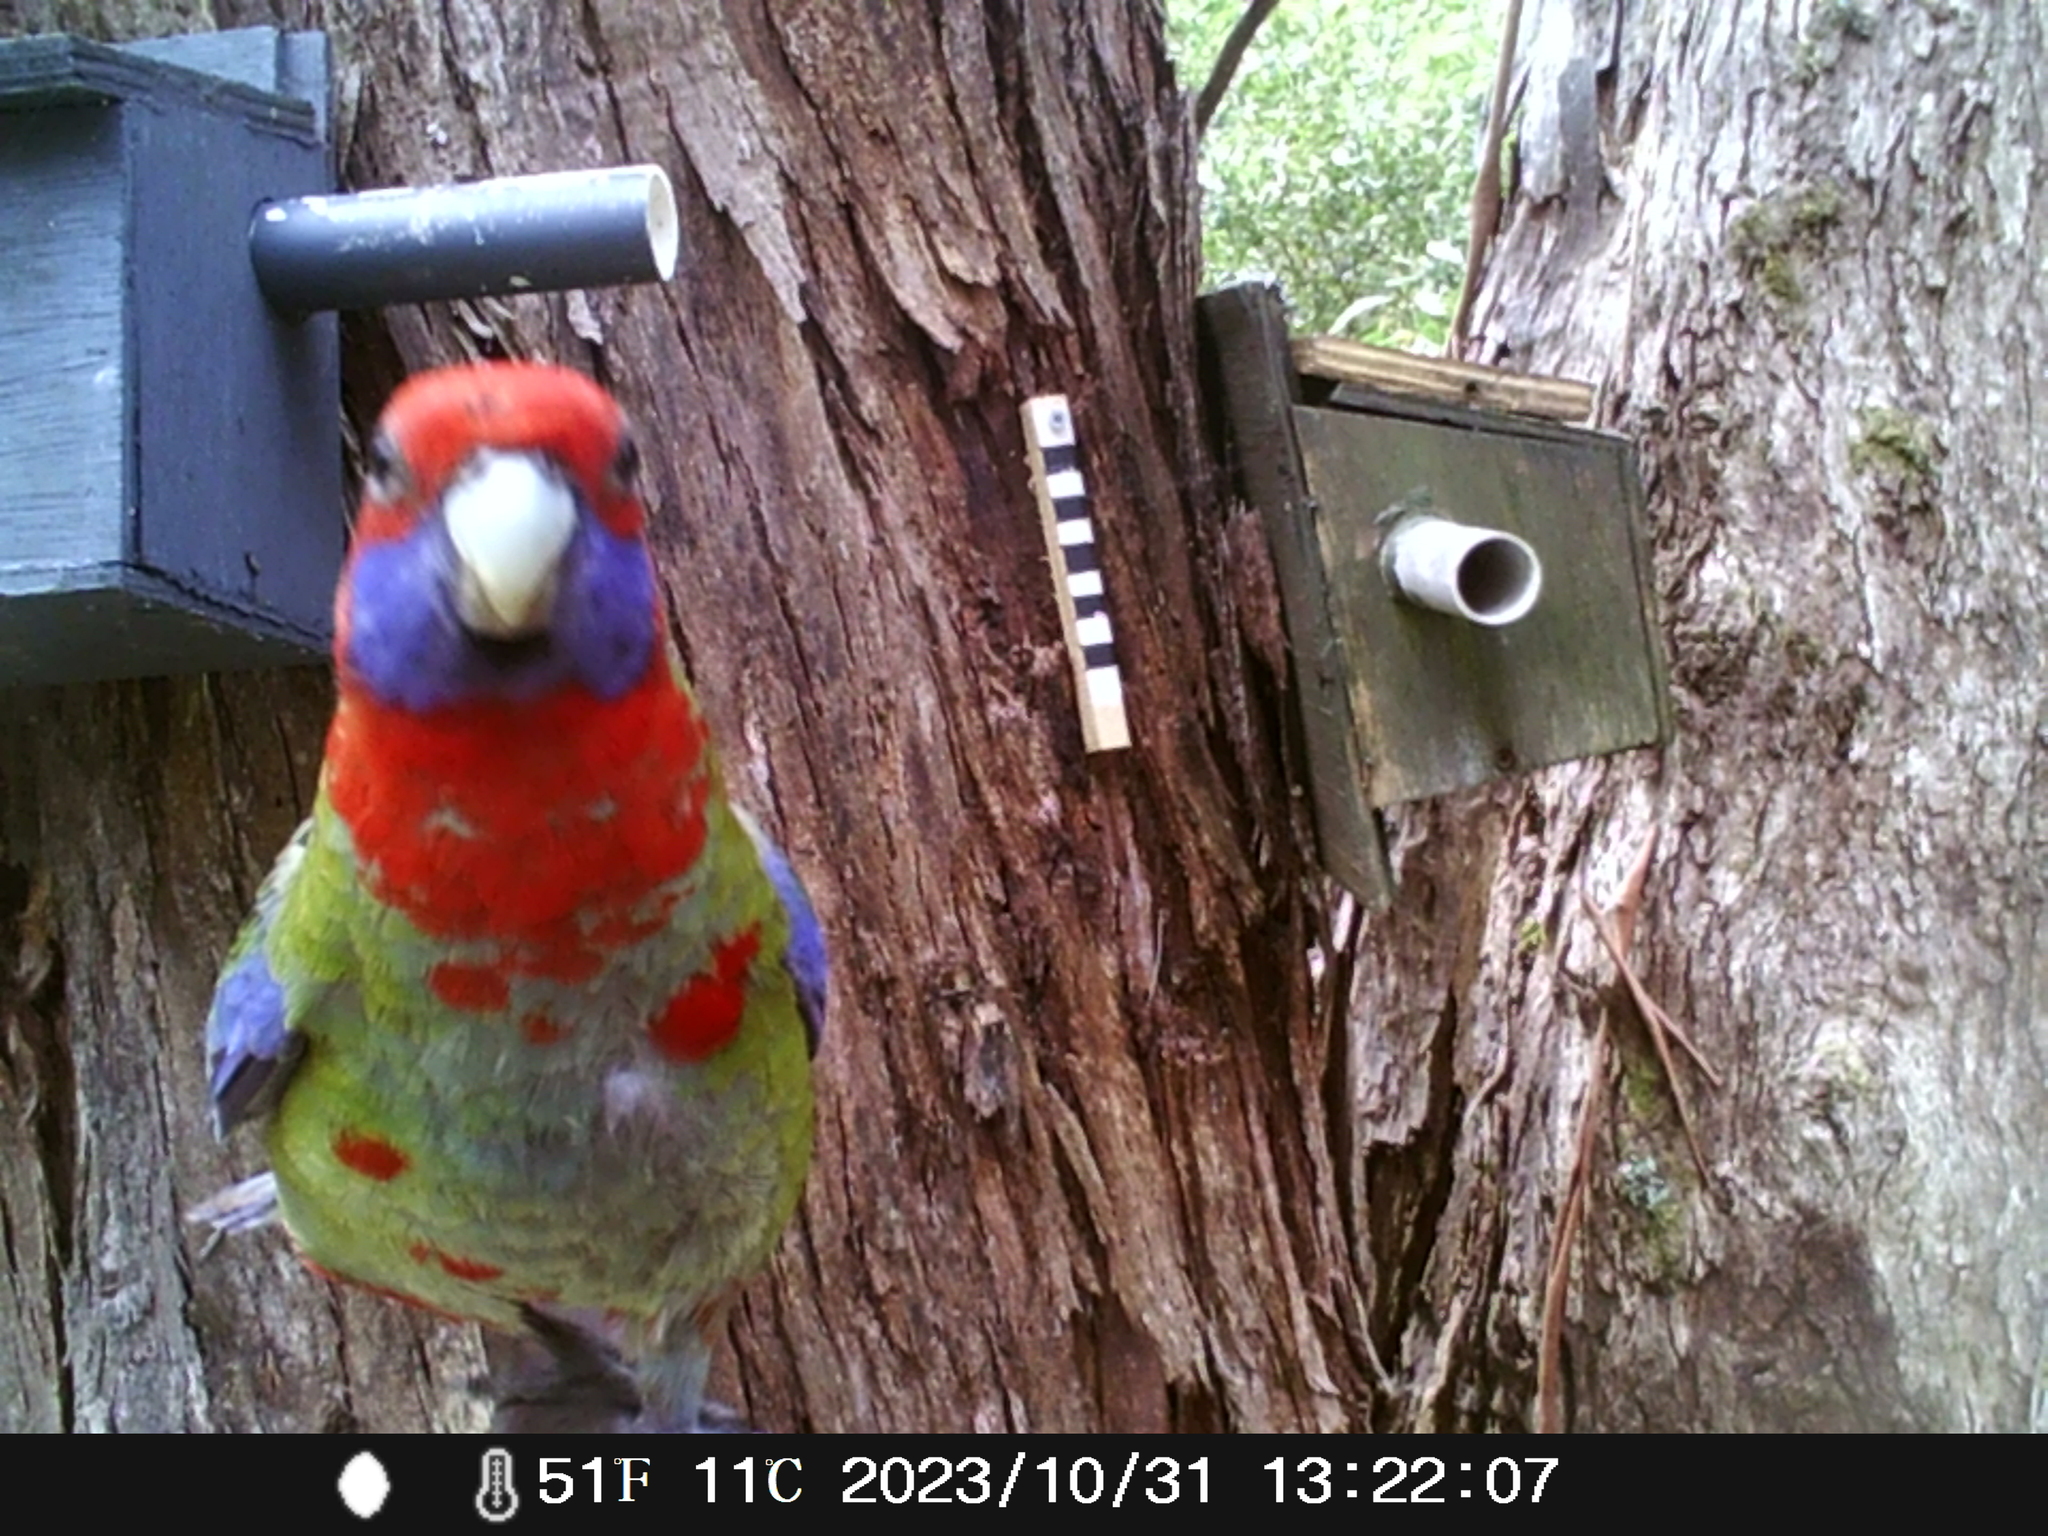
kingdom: Animalia
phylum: Chordata
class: Aves
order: Psittaciformes
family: Psittacidae
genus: Platycercus
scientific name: Platycercus elegans
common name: Crimson rosella
